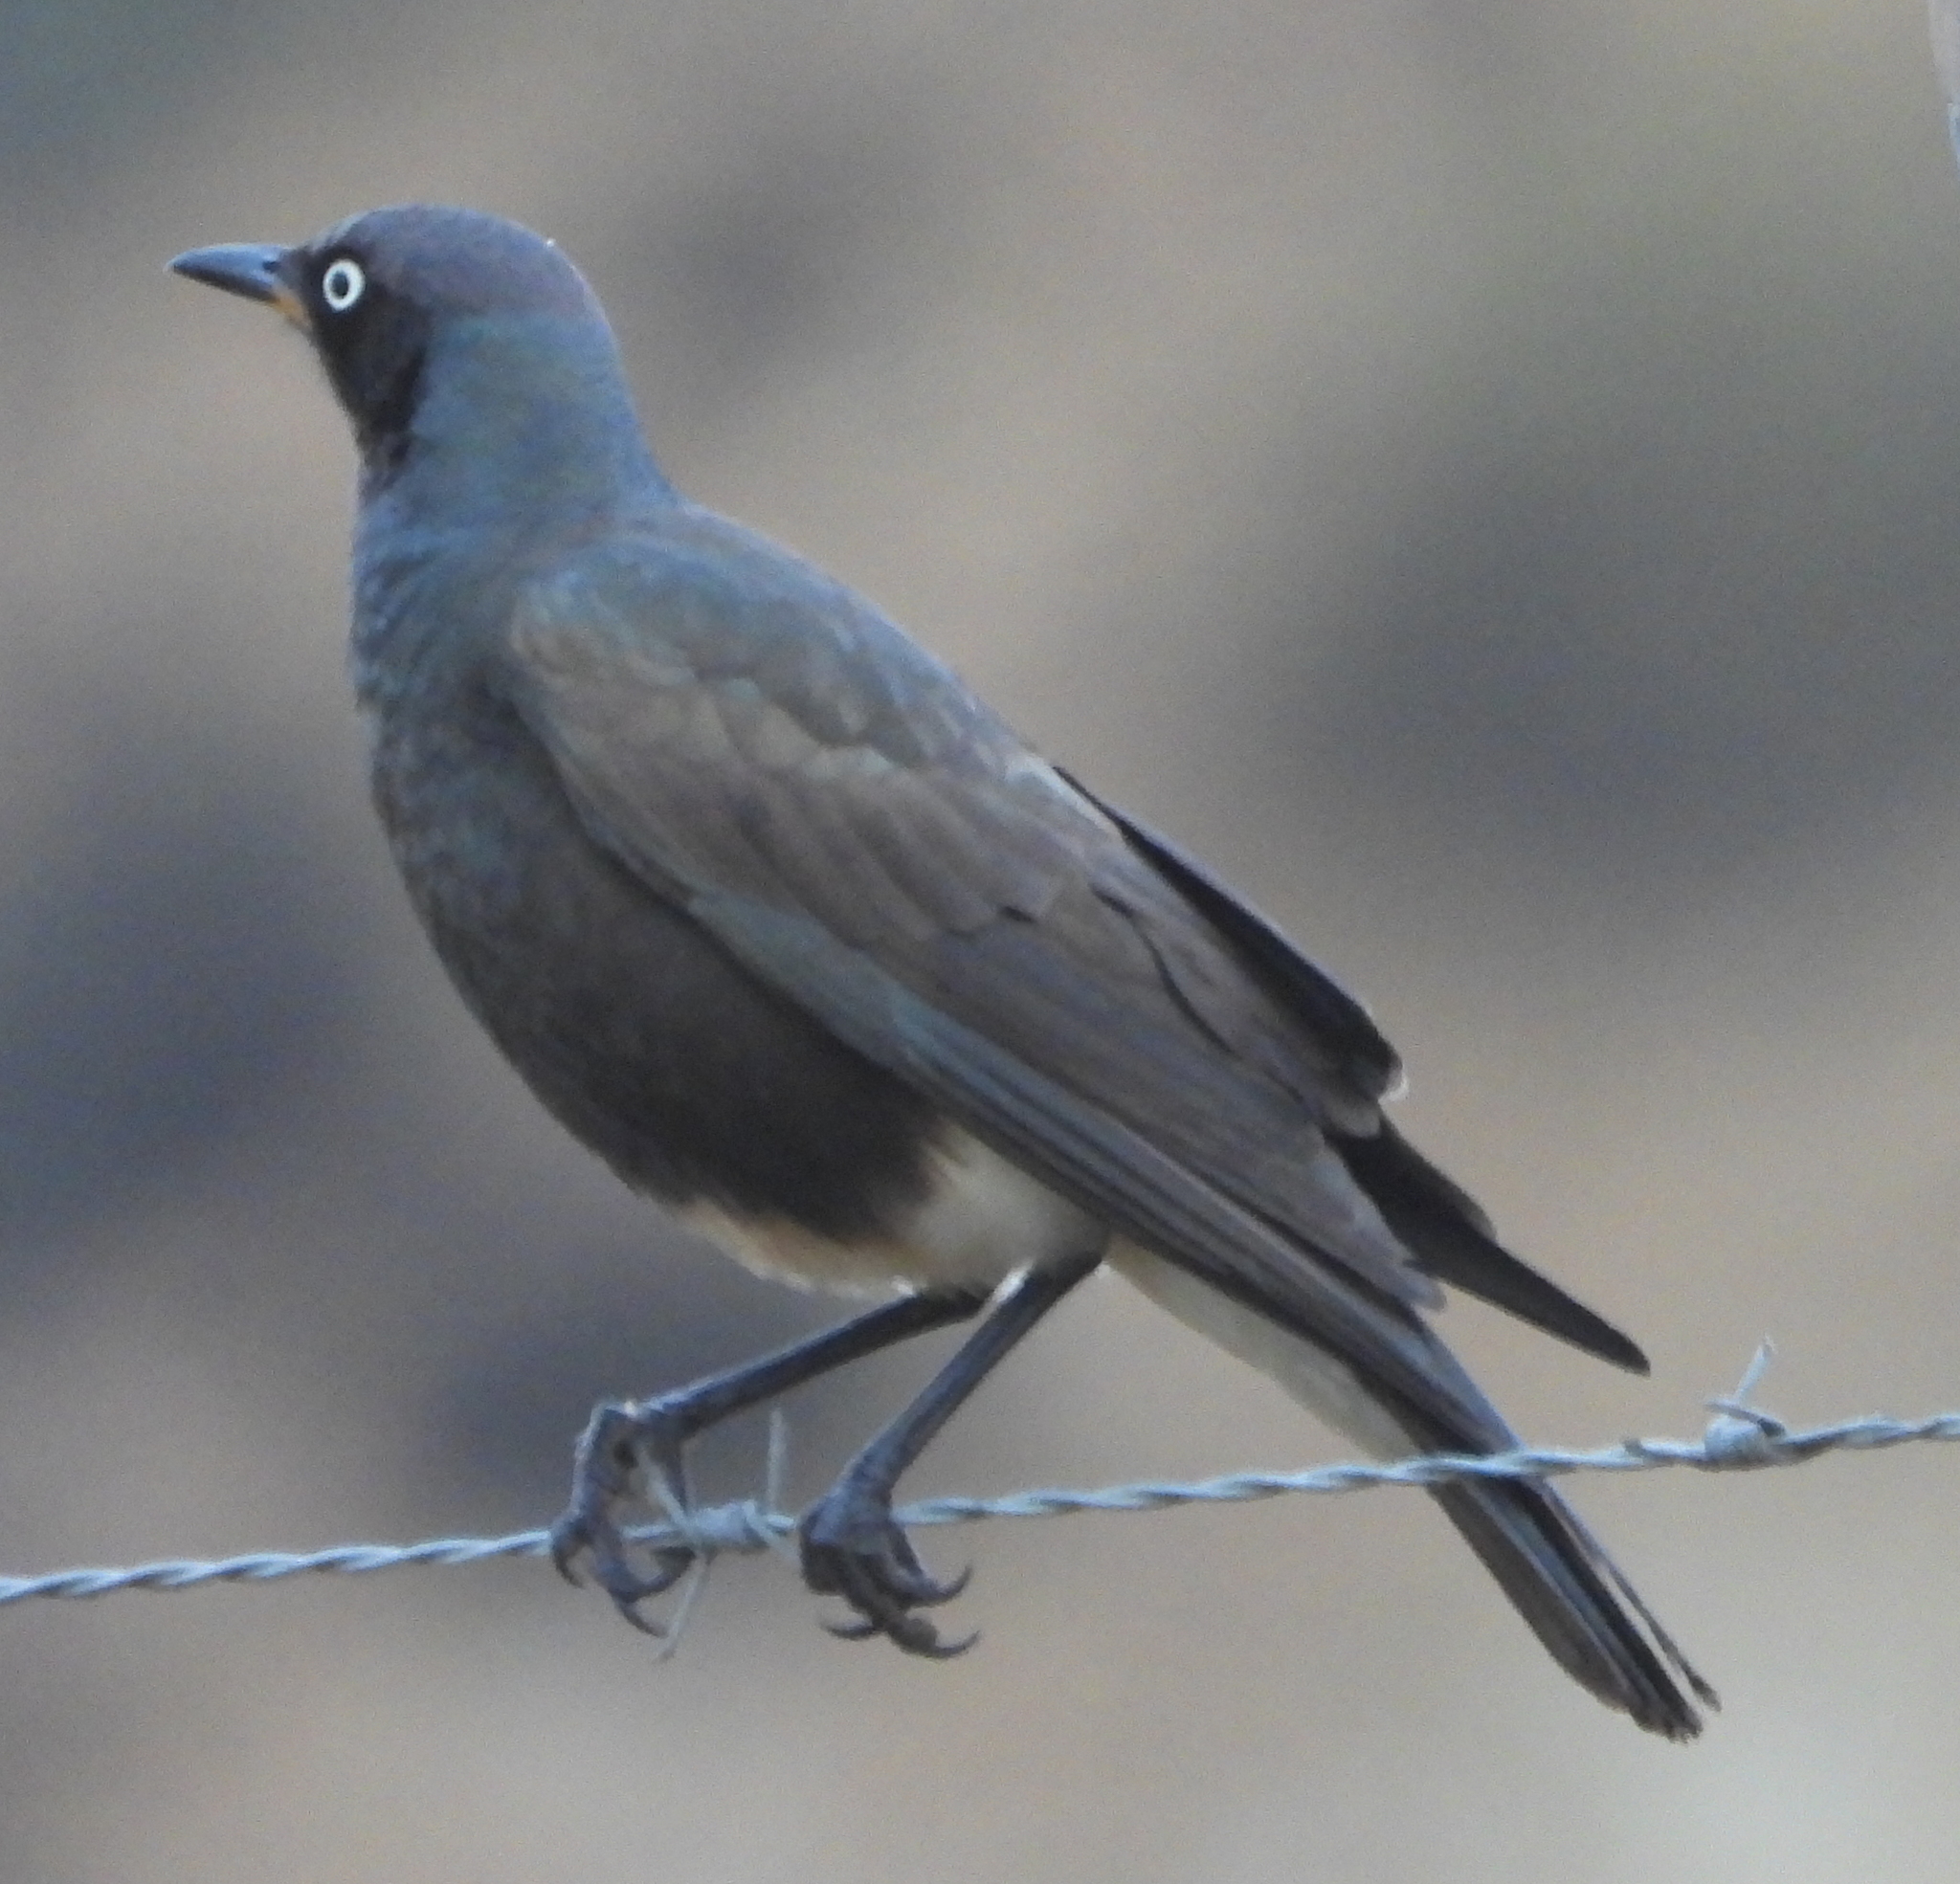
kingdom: Animalia
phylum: Chordata
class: Aves
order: Passeriformes
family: Sturnidae
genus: Lamprotornis
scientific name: Lamprotornis bicolor
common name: Pied starling
